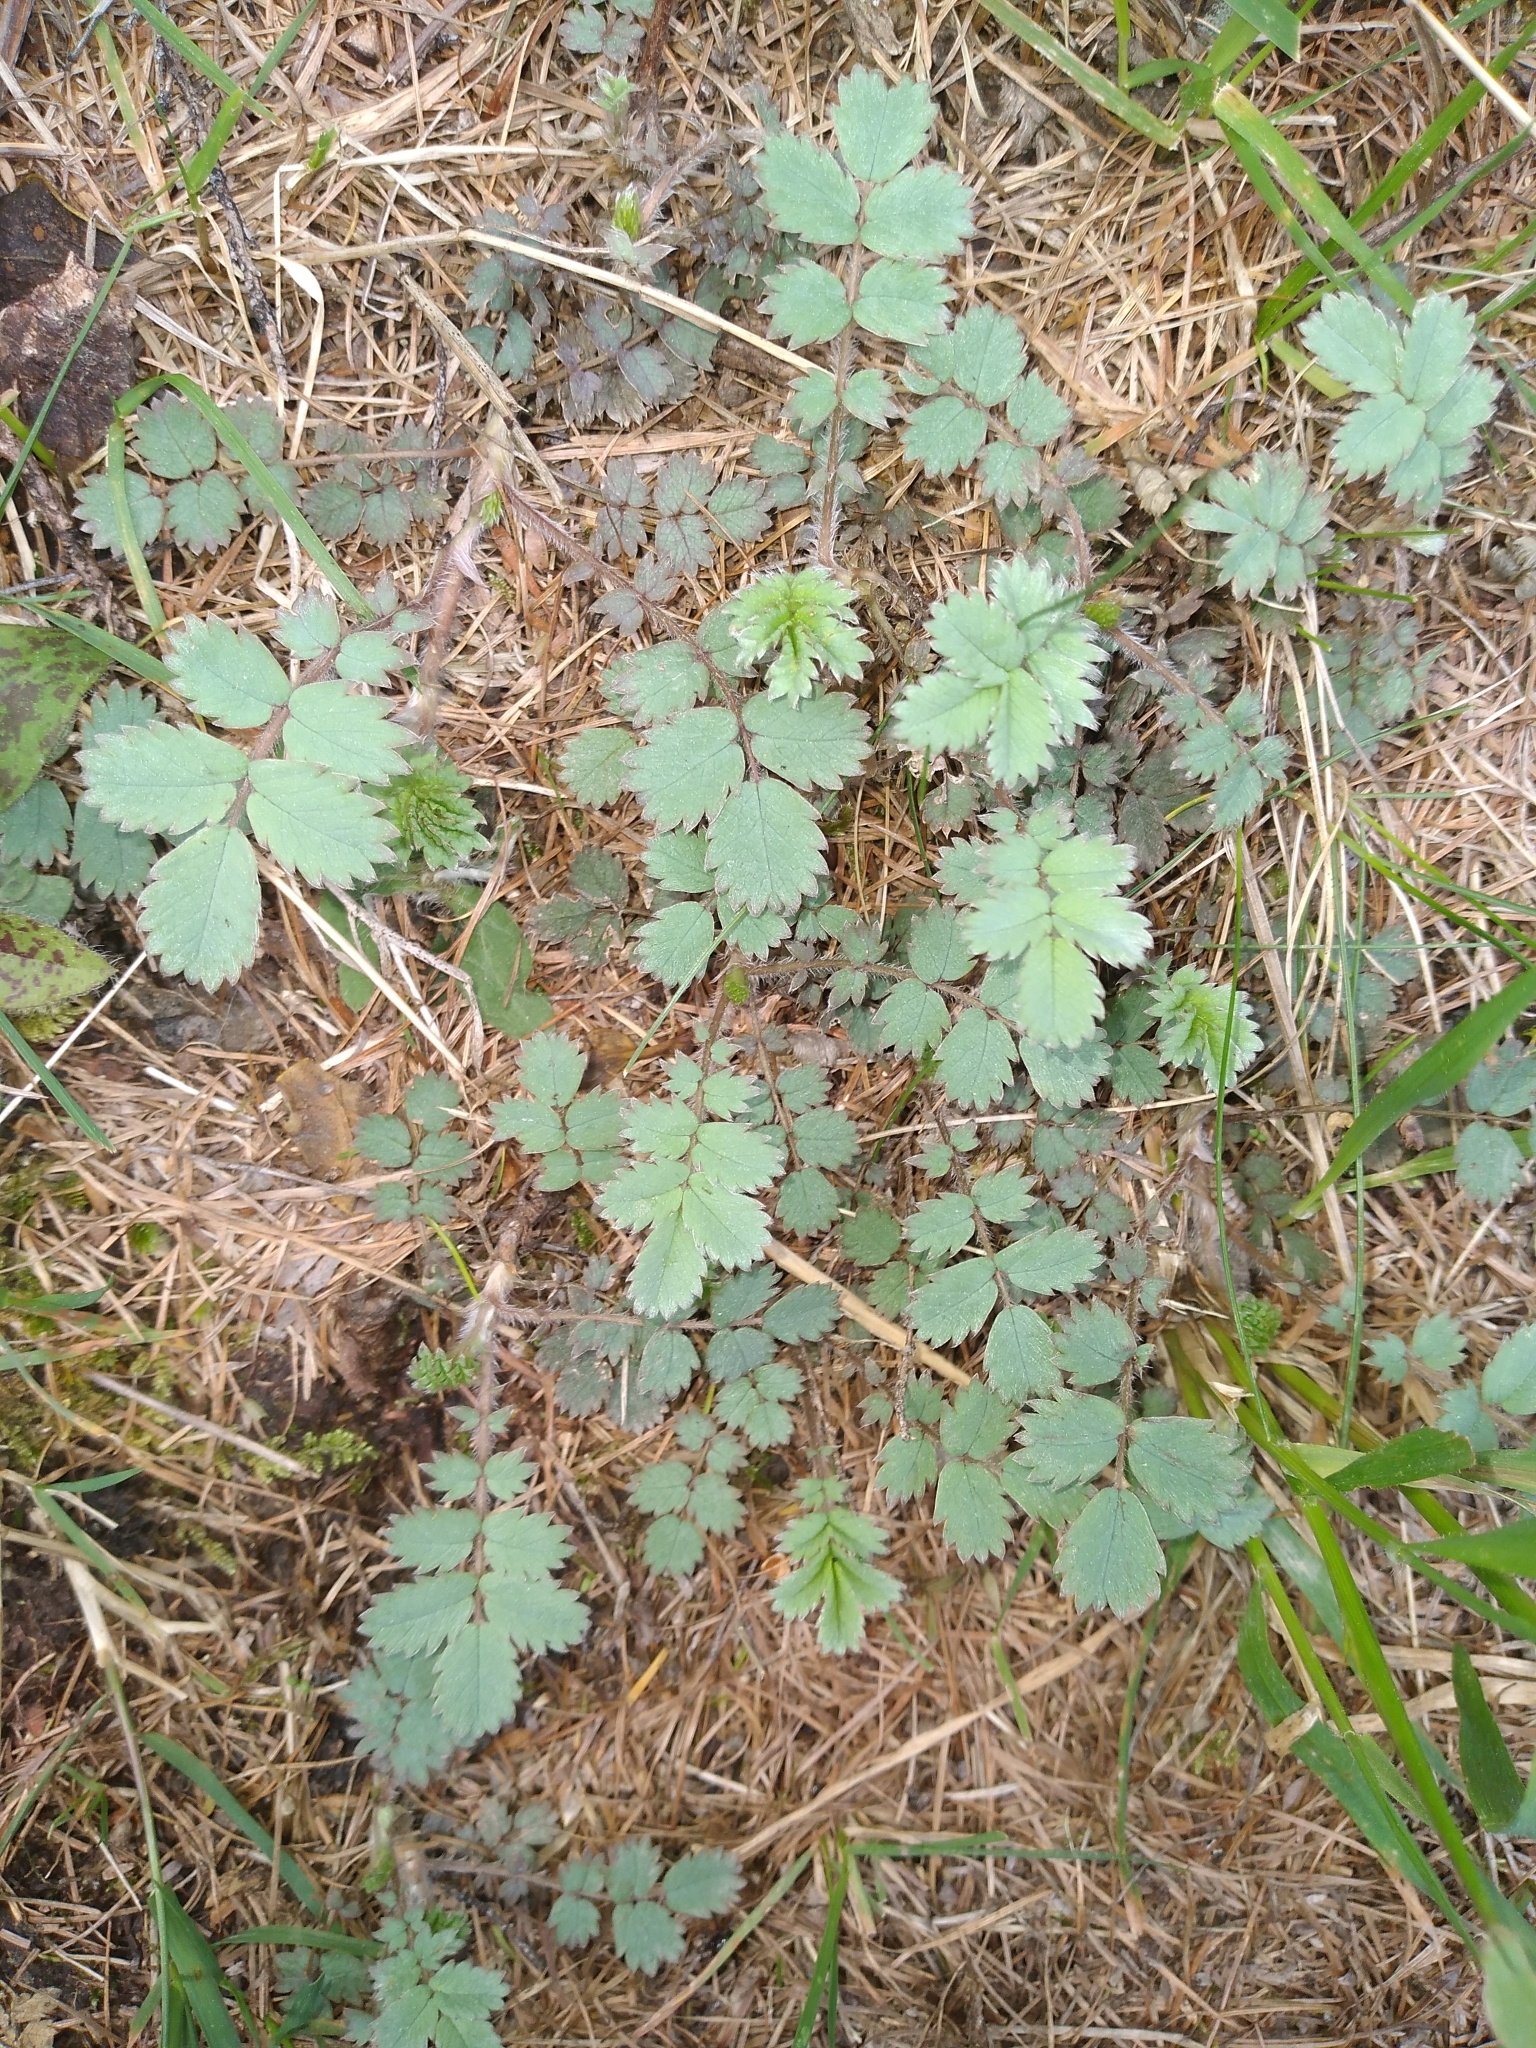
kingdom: Plantae
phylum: Tracheophyta
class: Magnoliopsida
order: Rosales
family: Rosaceae
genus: Acaena
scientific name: Acaena caesiiglauca
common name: Glaucous pirri-pirri-bur
